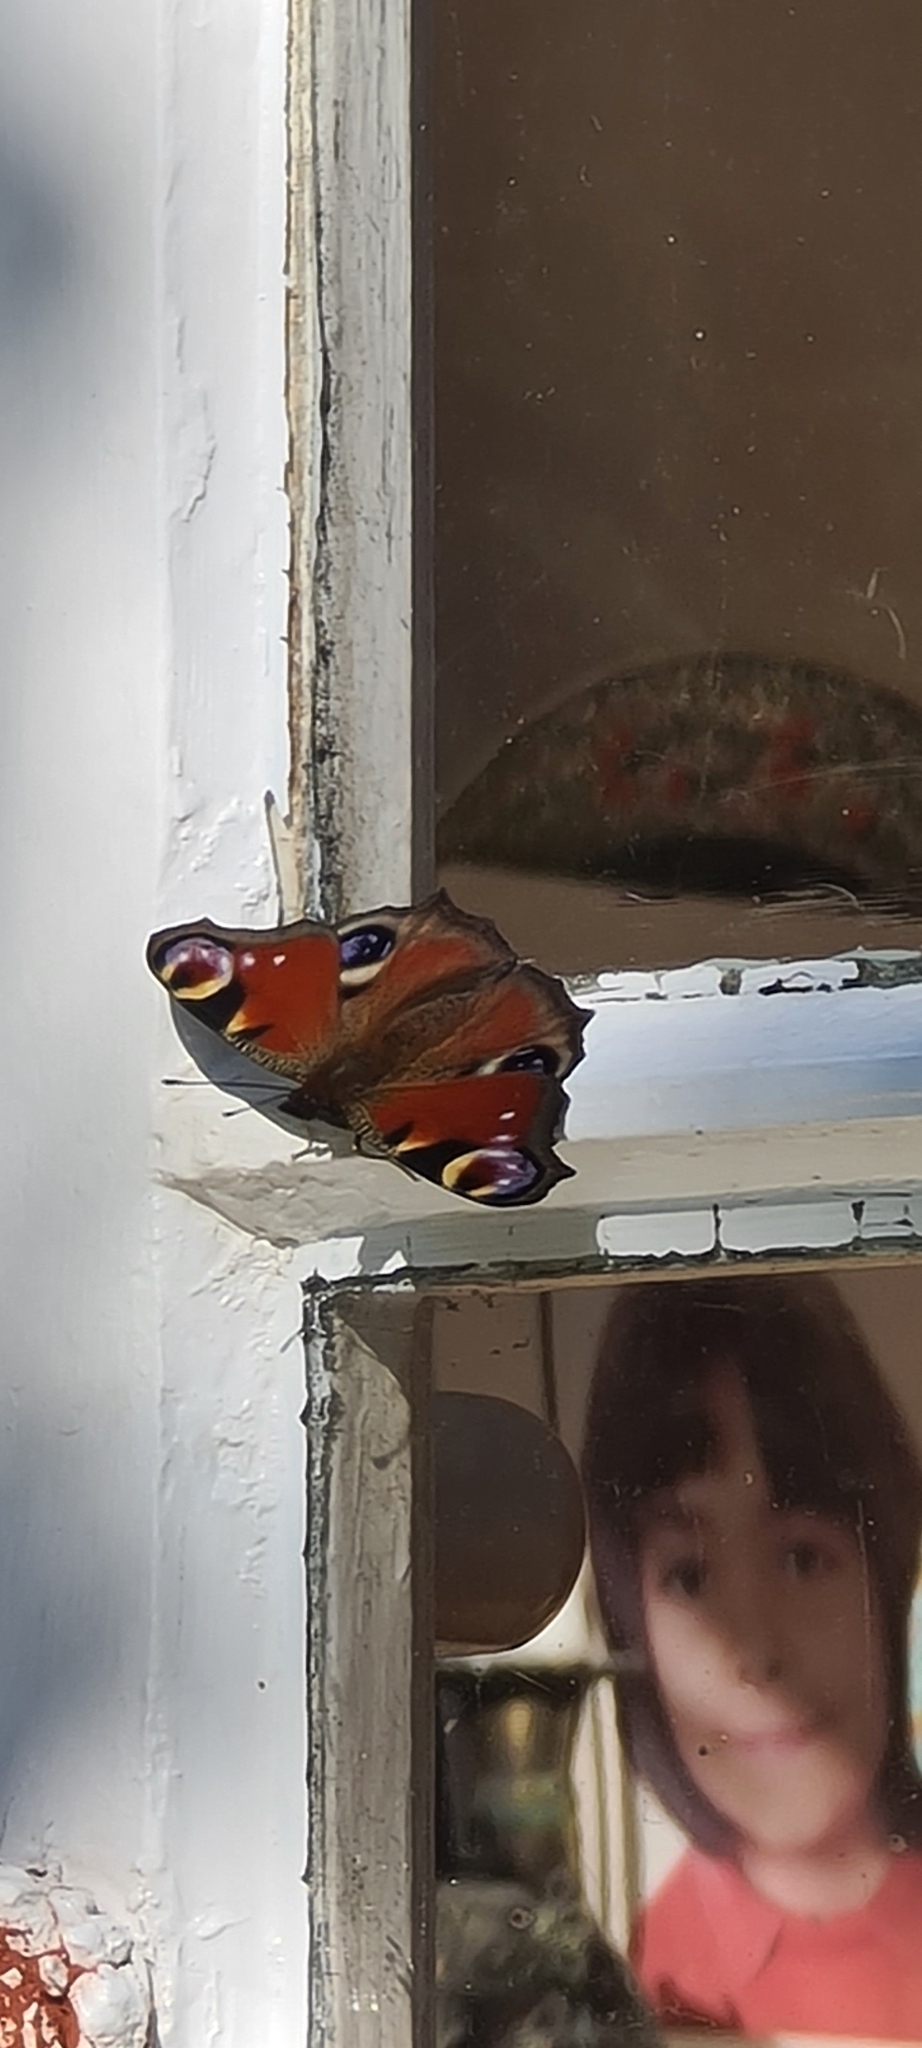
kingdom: Animalia
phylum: Arthropoda
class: Insecta
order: Lepidoptera
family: Nymphalidae
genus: Aglais
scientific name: Aglais io
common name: Peacock
